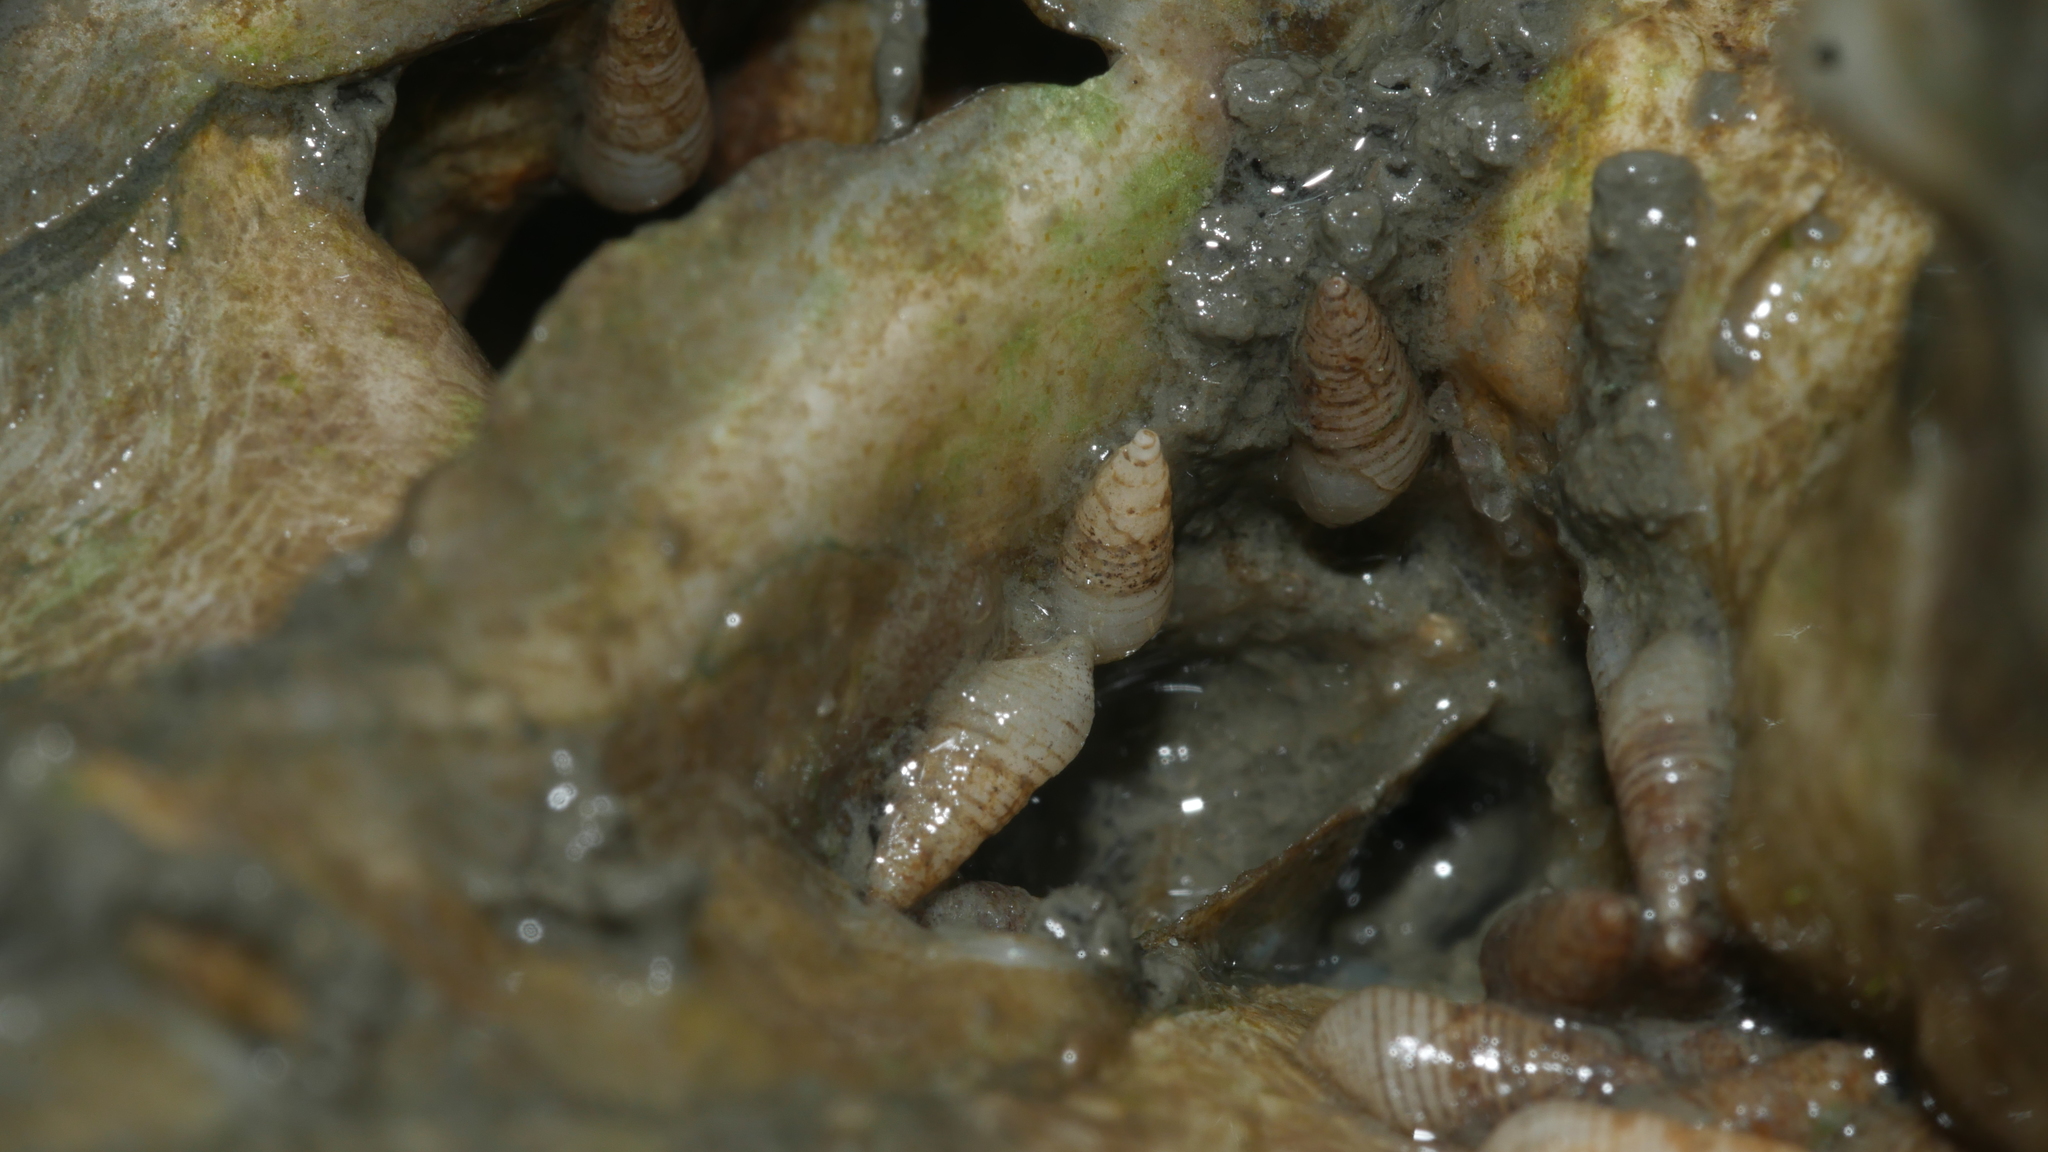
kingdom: Animalia
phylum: Mollusca
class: Gastropoda
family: Pyramidellidae
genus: Boonea
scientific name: Boonea impressa
